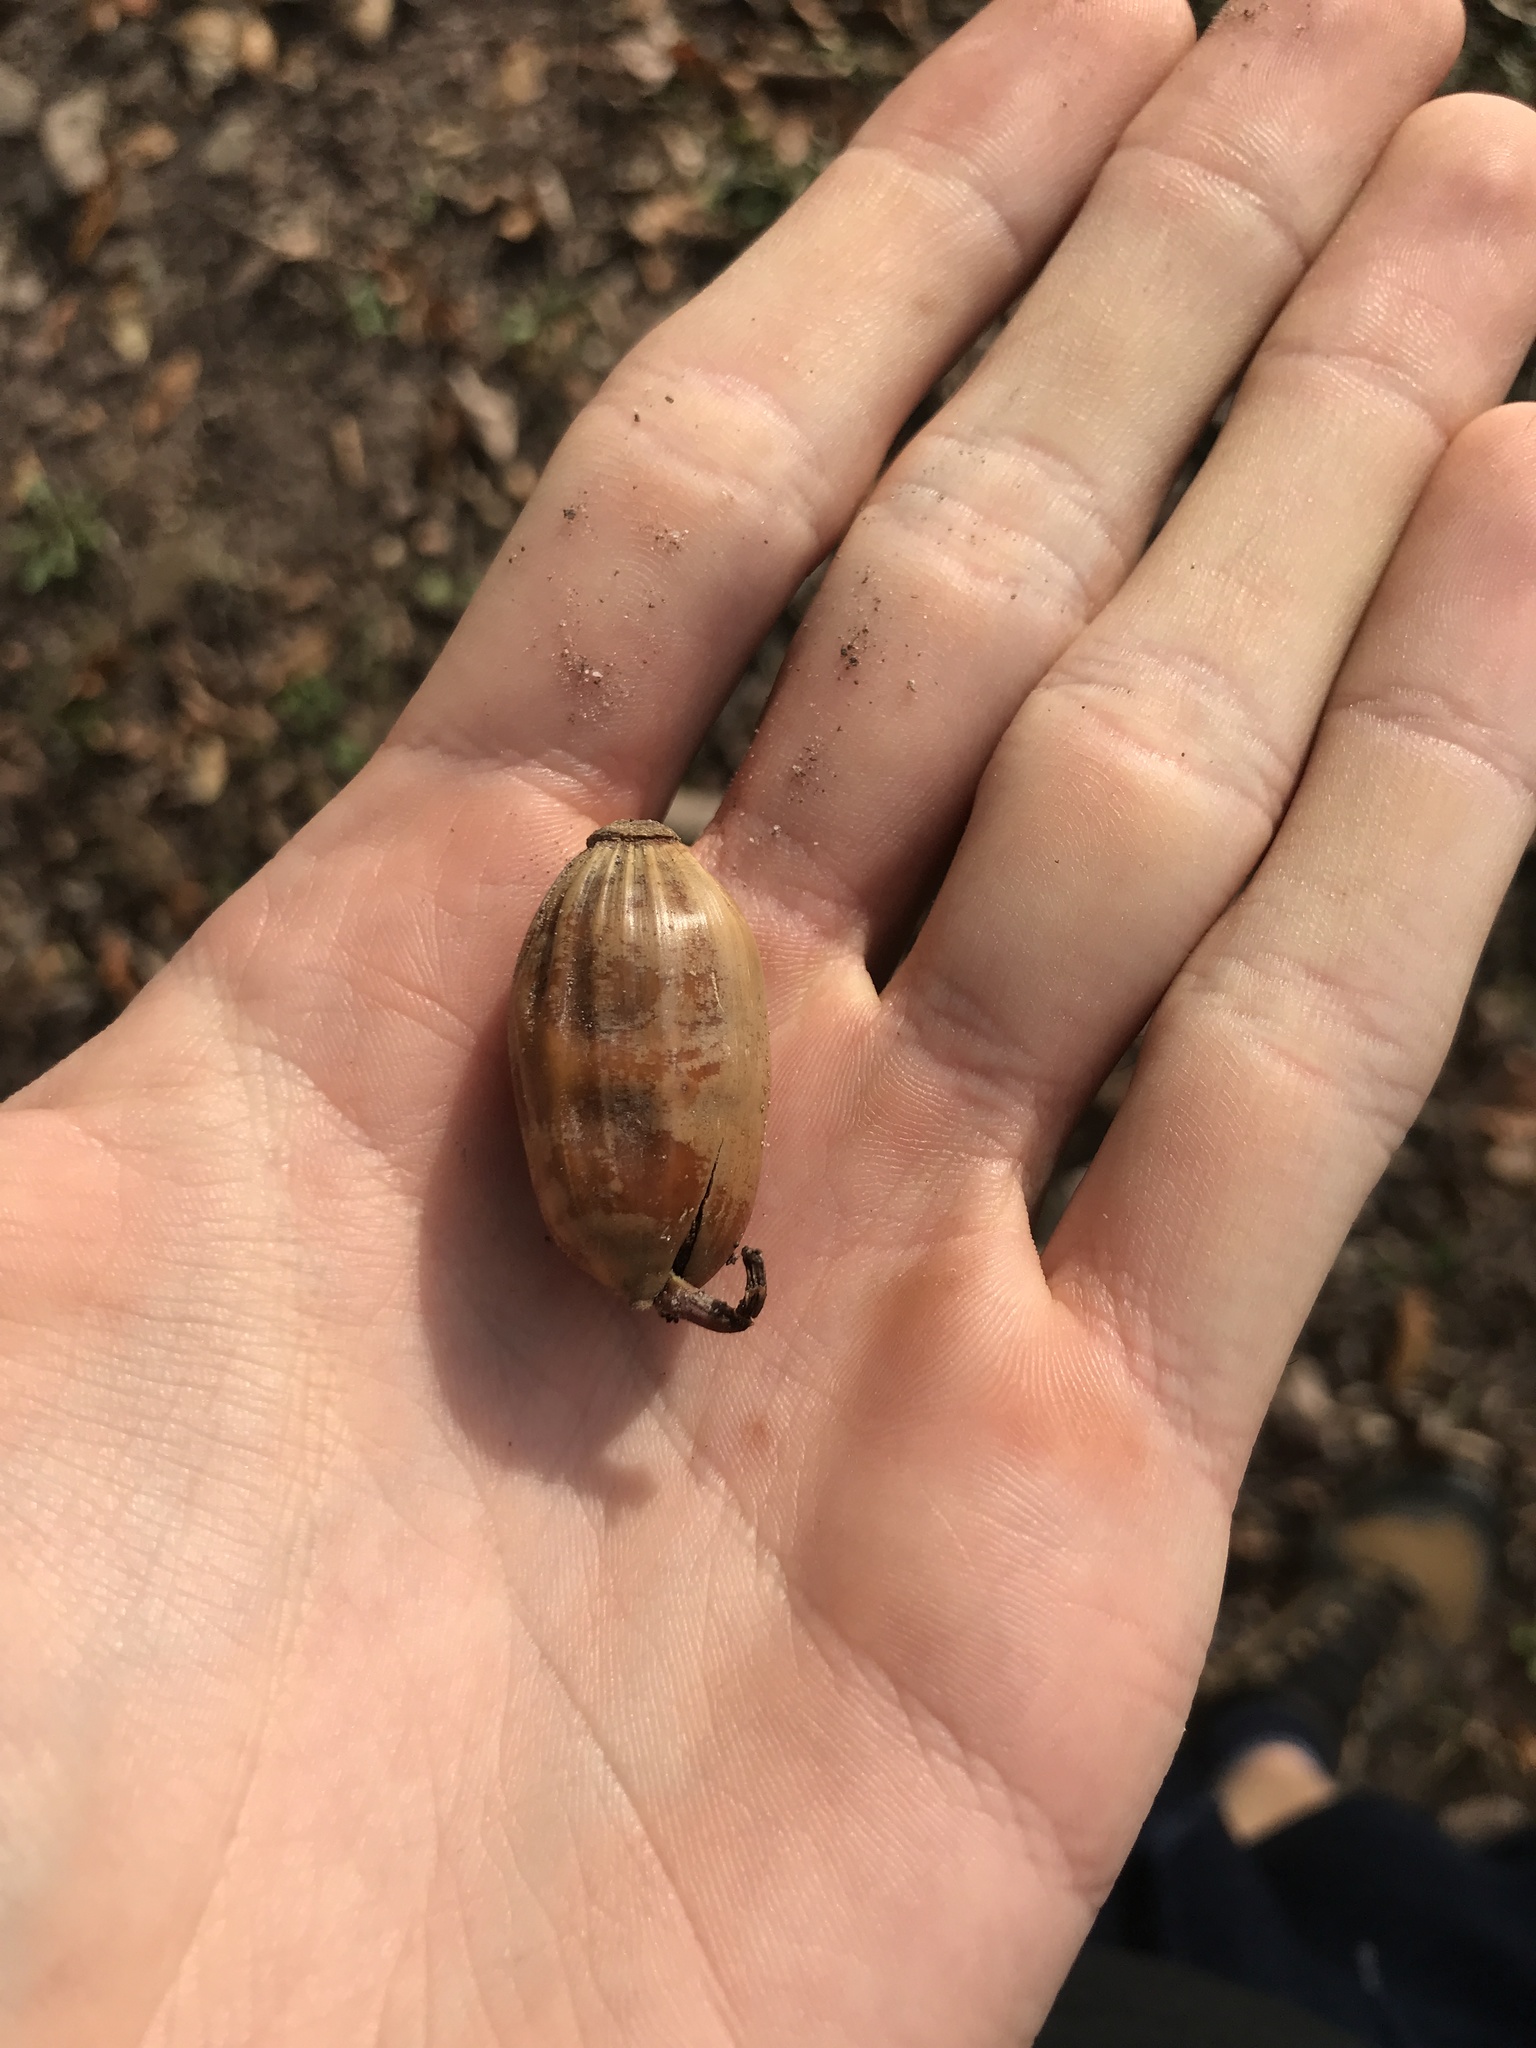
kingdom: Plantae
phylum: Tracheophyta
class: Magnoliopsida
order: Fagales
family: Fagaceae
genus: Quercus
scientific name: Quercus montana
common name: Chestnut oak
